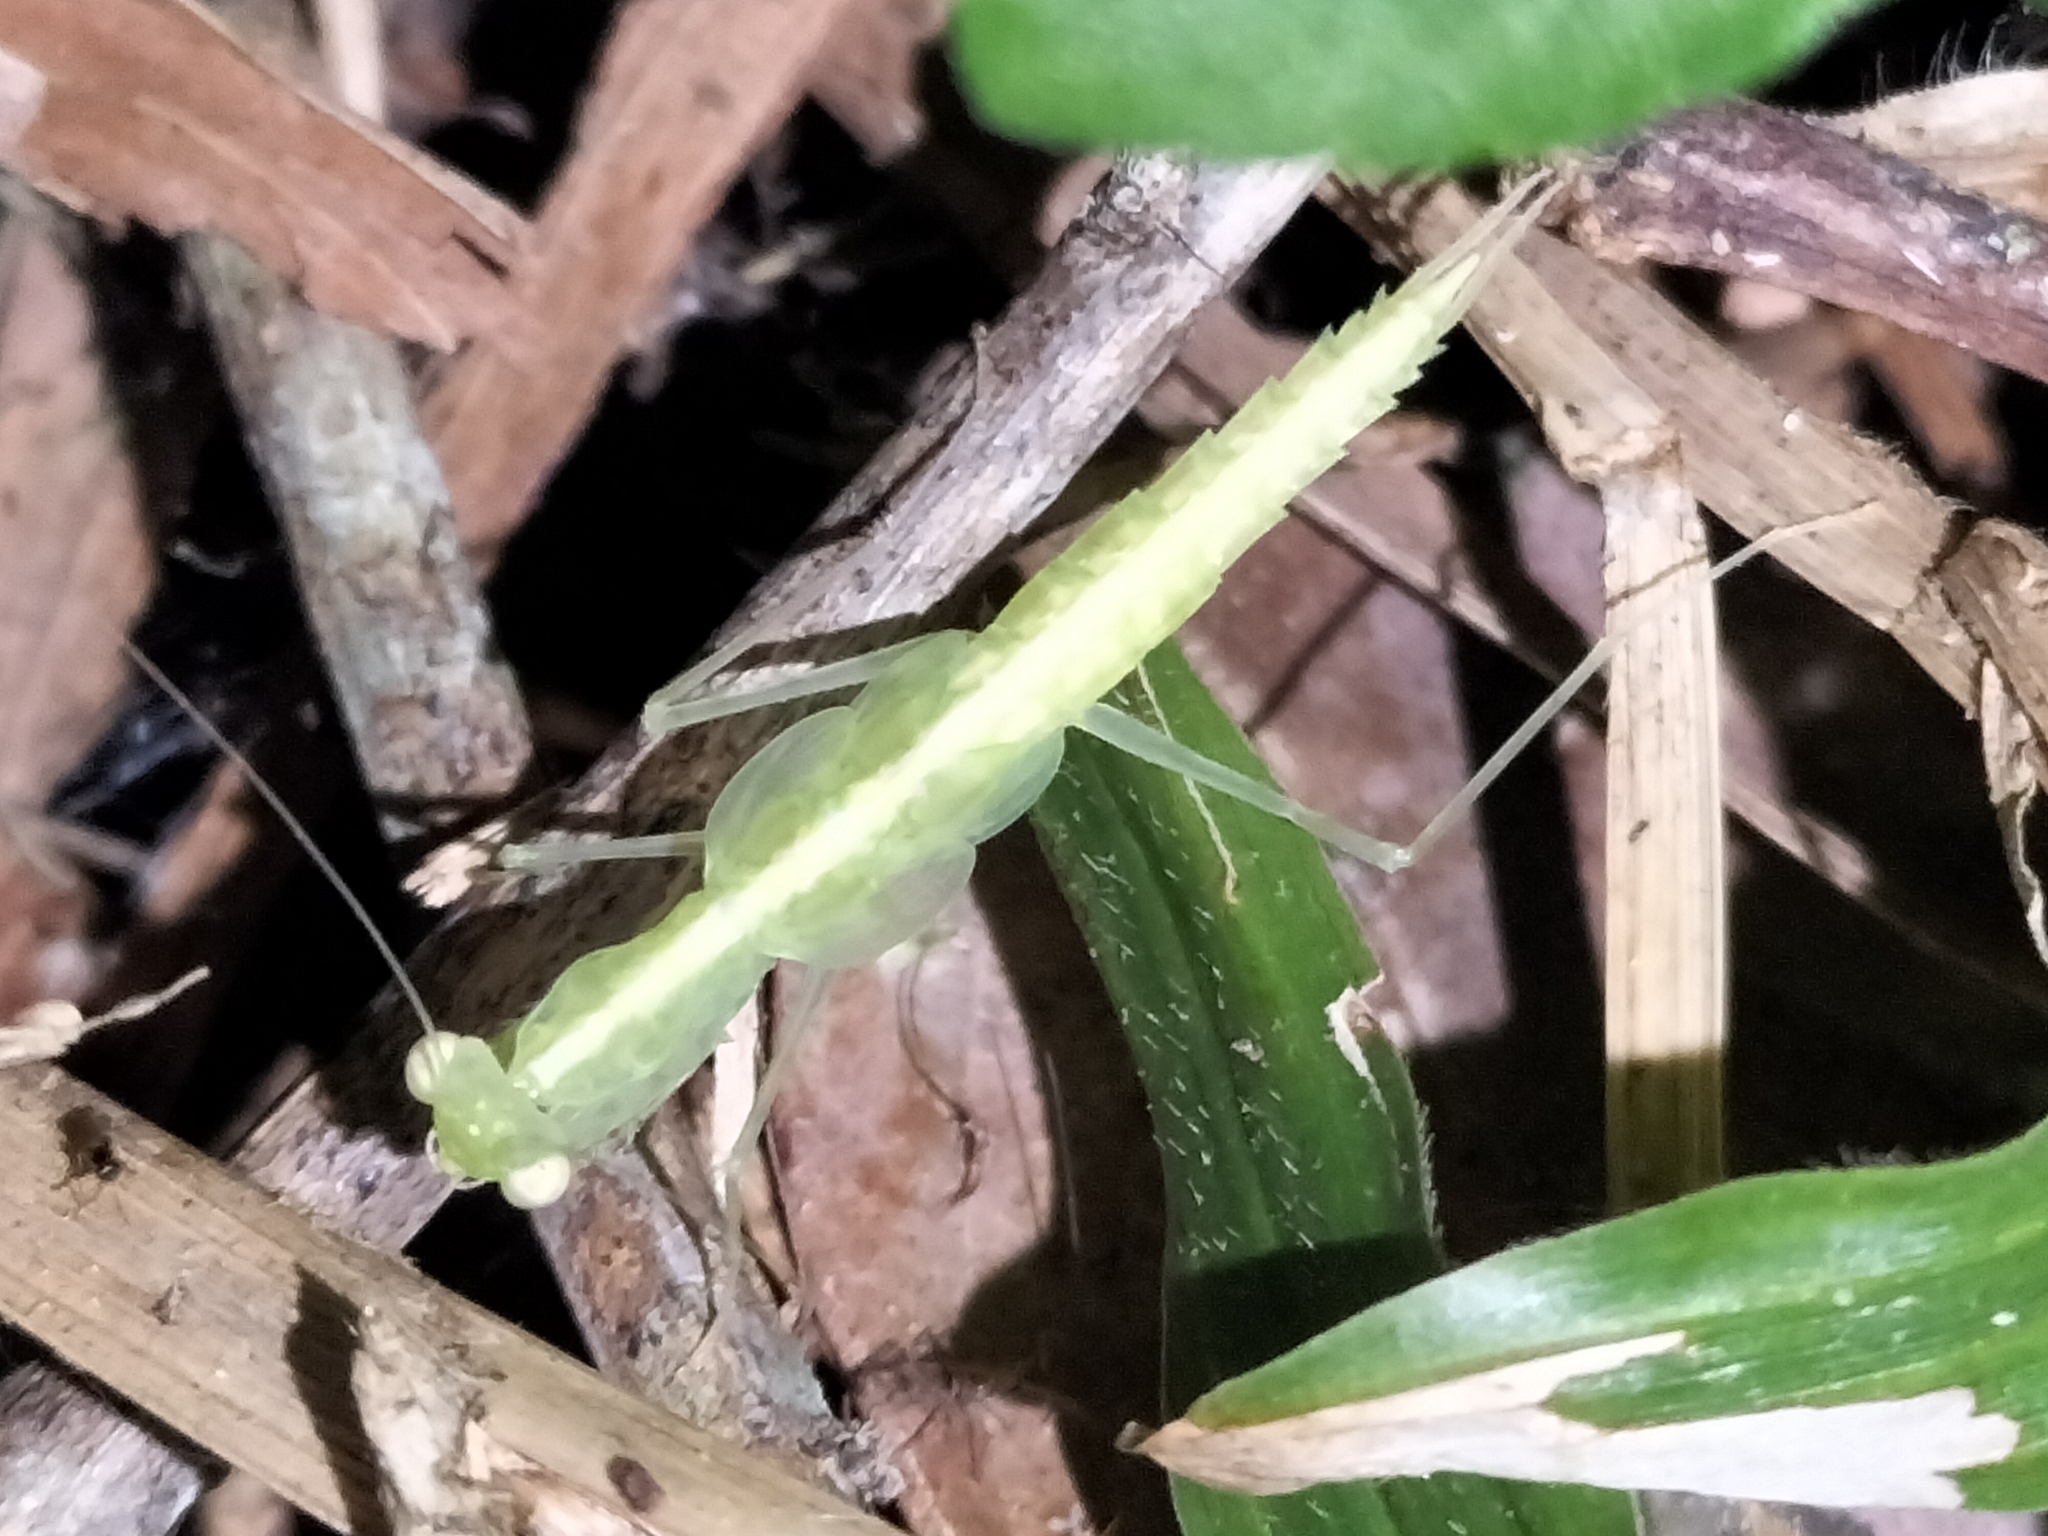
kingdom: Animalia
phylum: Arthropoda
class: Insecta
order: Mantodea
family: Nanomantidae
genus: Neomantis
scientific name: Neomantis australis
